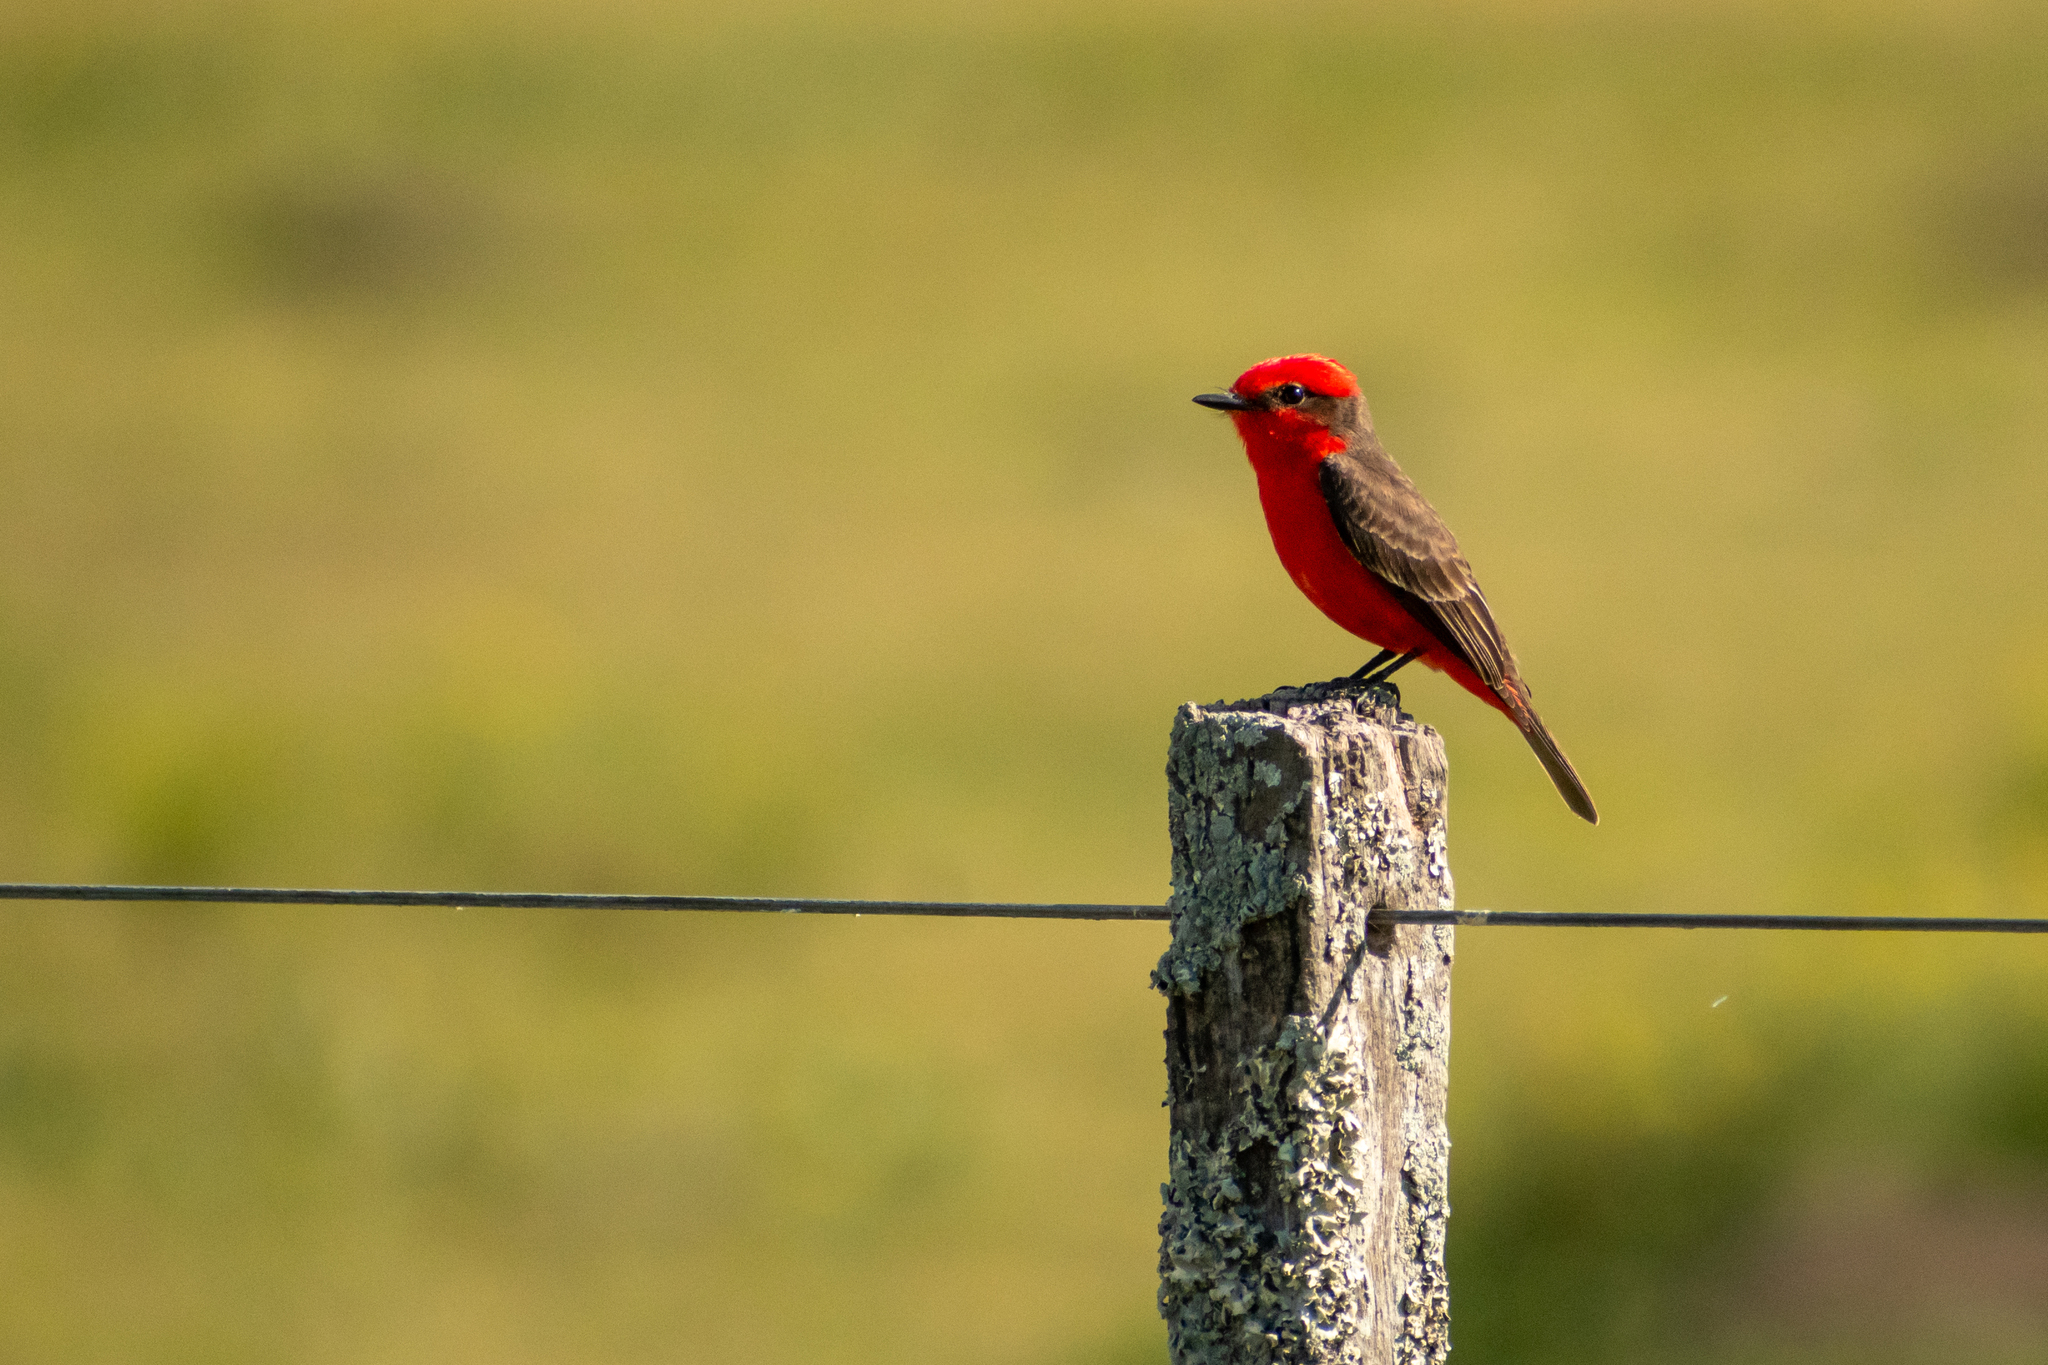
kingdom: Animalia
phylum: Chordata
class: Aves
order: Passeriformes
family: Tyrannidae
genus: Pyrocephalus
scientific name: Pyrocephalus rubinus
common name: Vermilion flycatcher
